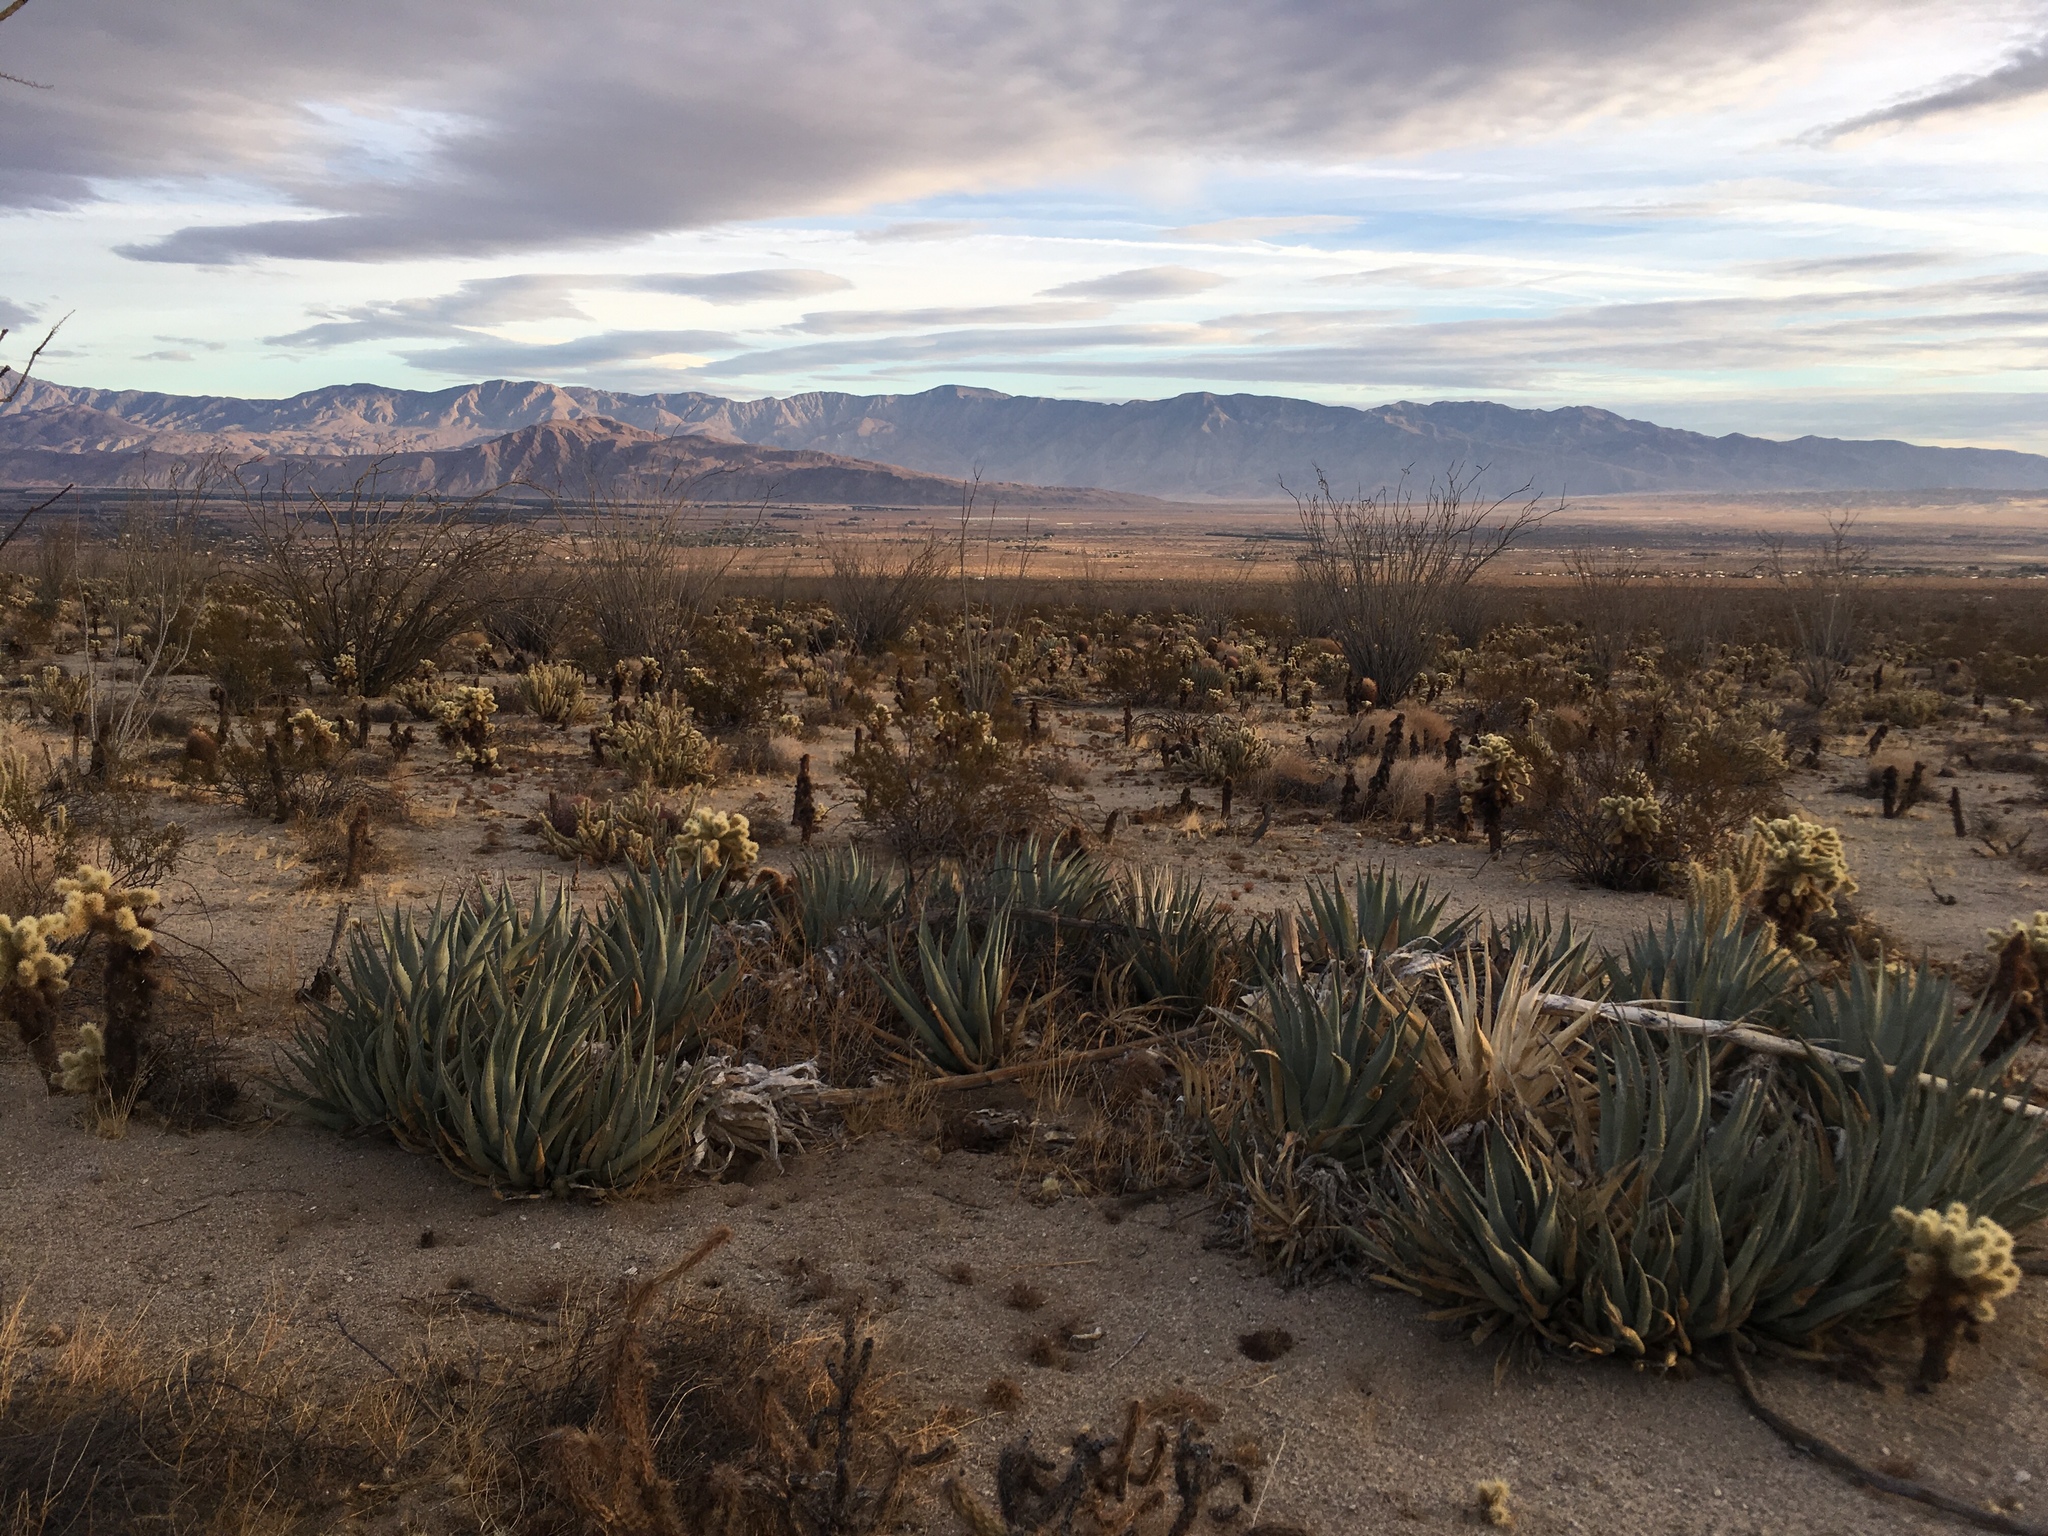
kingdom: Plantae
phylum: Tracheophyta
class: Liliopsida
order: Asparagales
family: Asparagaceae
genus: Agave
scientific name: Agave deserti
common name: Desert agave
